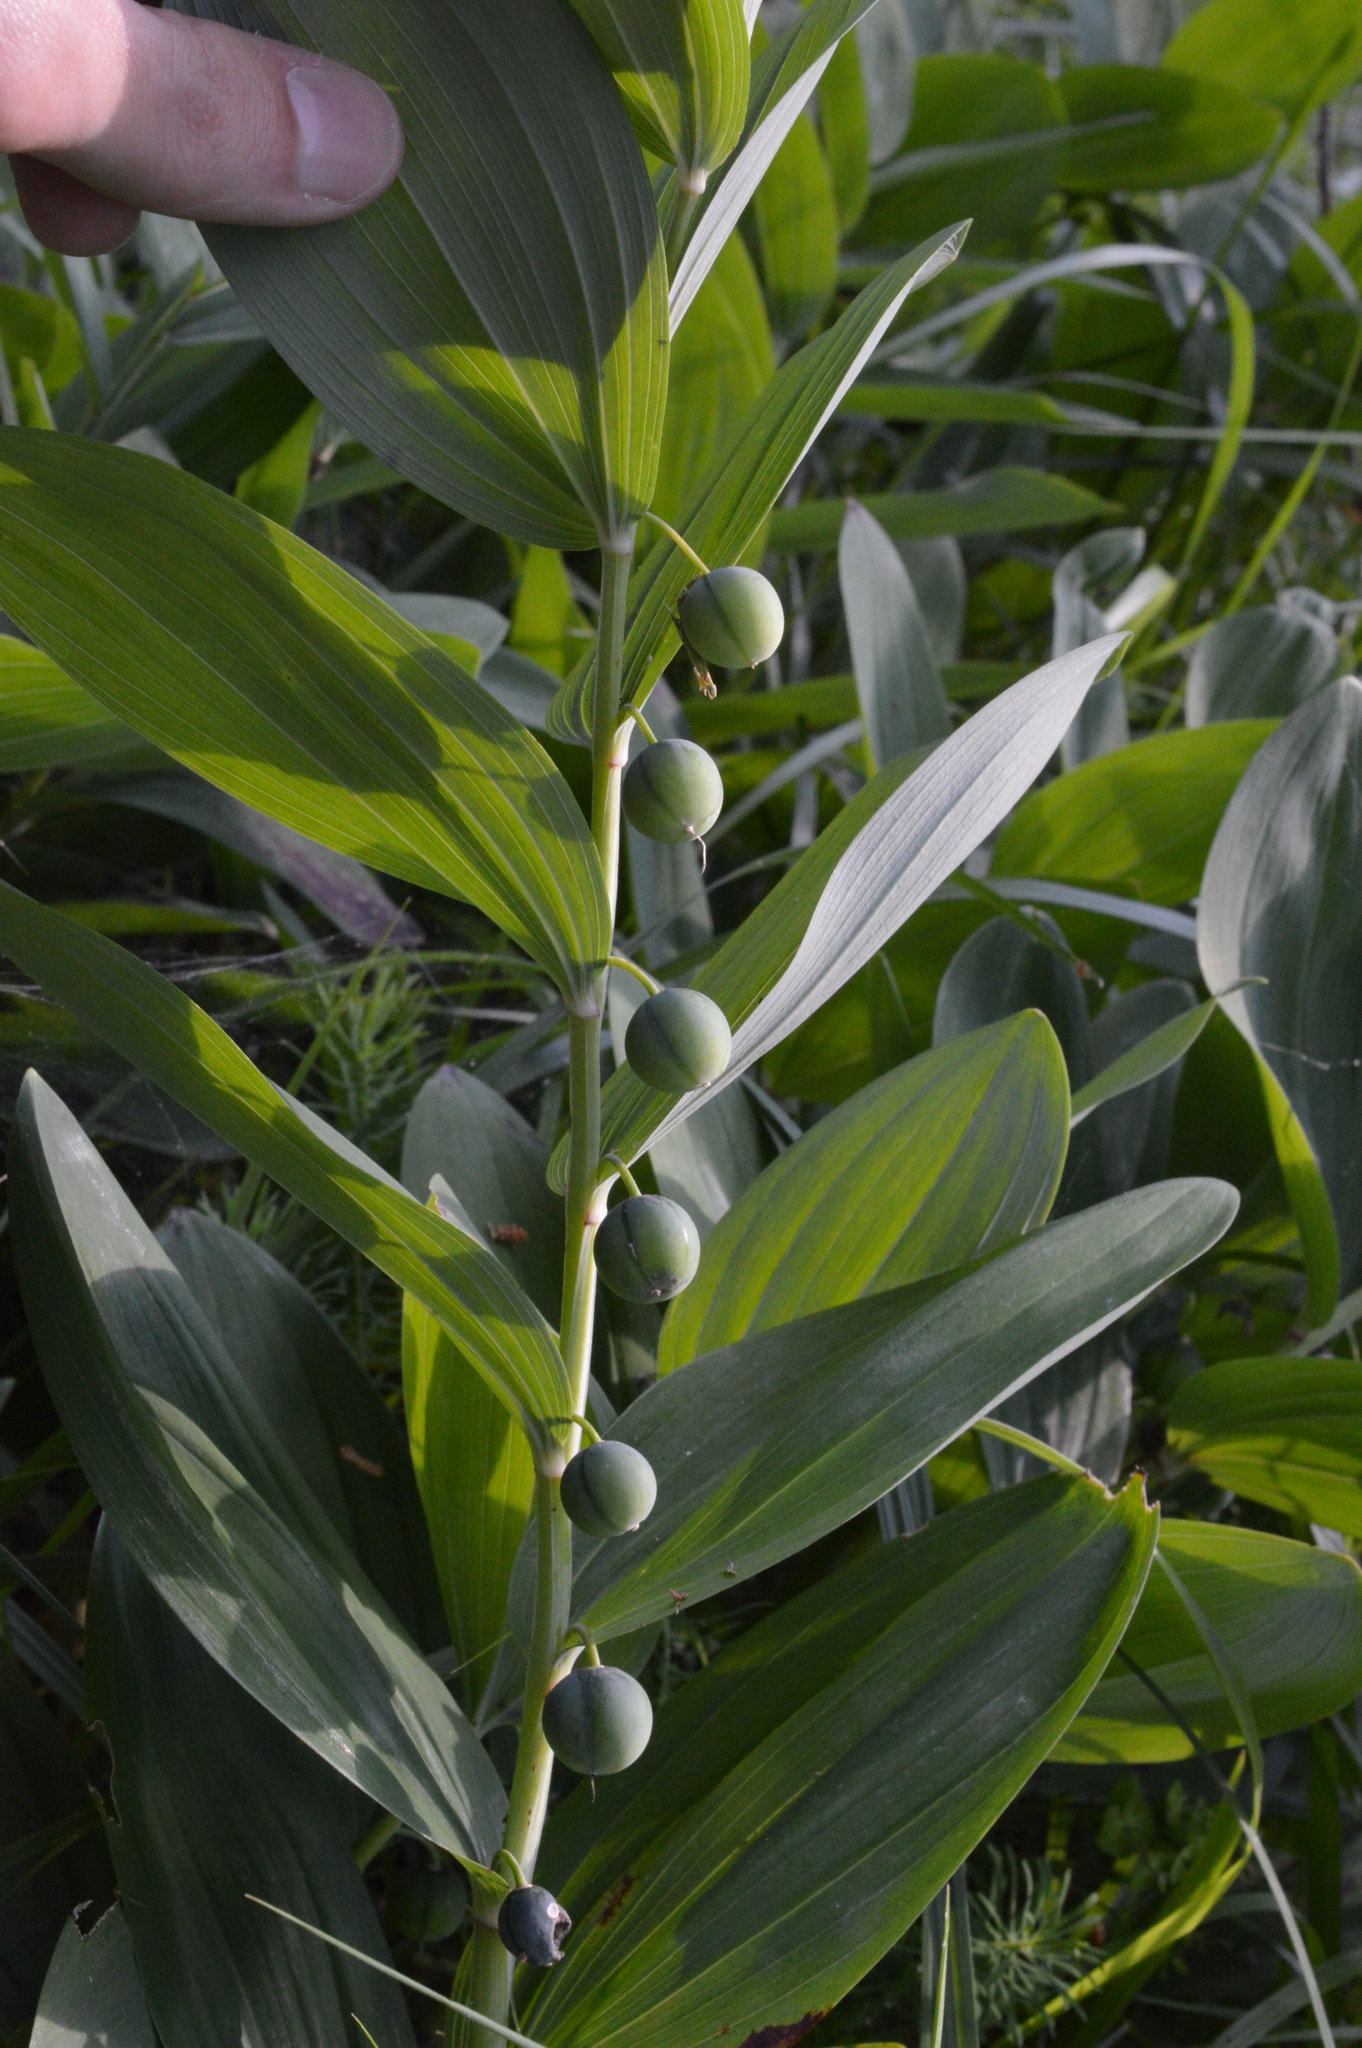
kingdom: Plantae
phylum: Tracheophyta
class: Liliopsida
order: Asparagales
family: Asparagaceae
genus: Polygonatum
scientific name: Polygonatum odoratum
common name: Angular solomon's-seal
